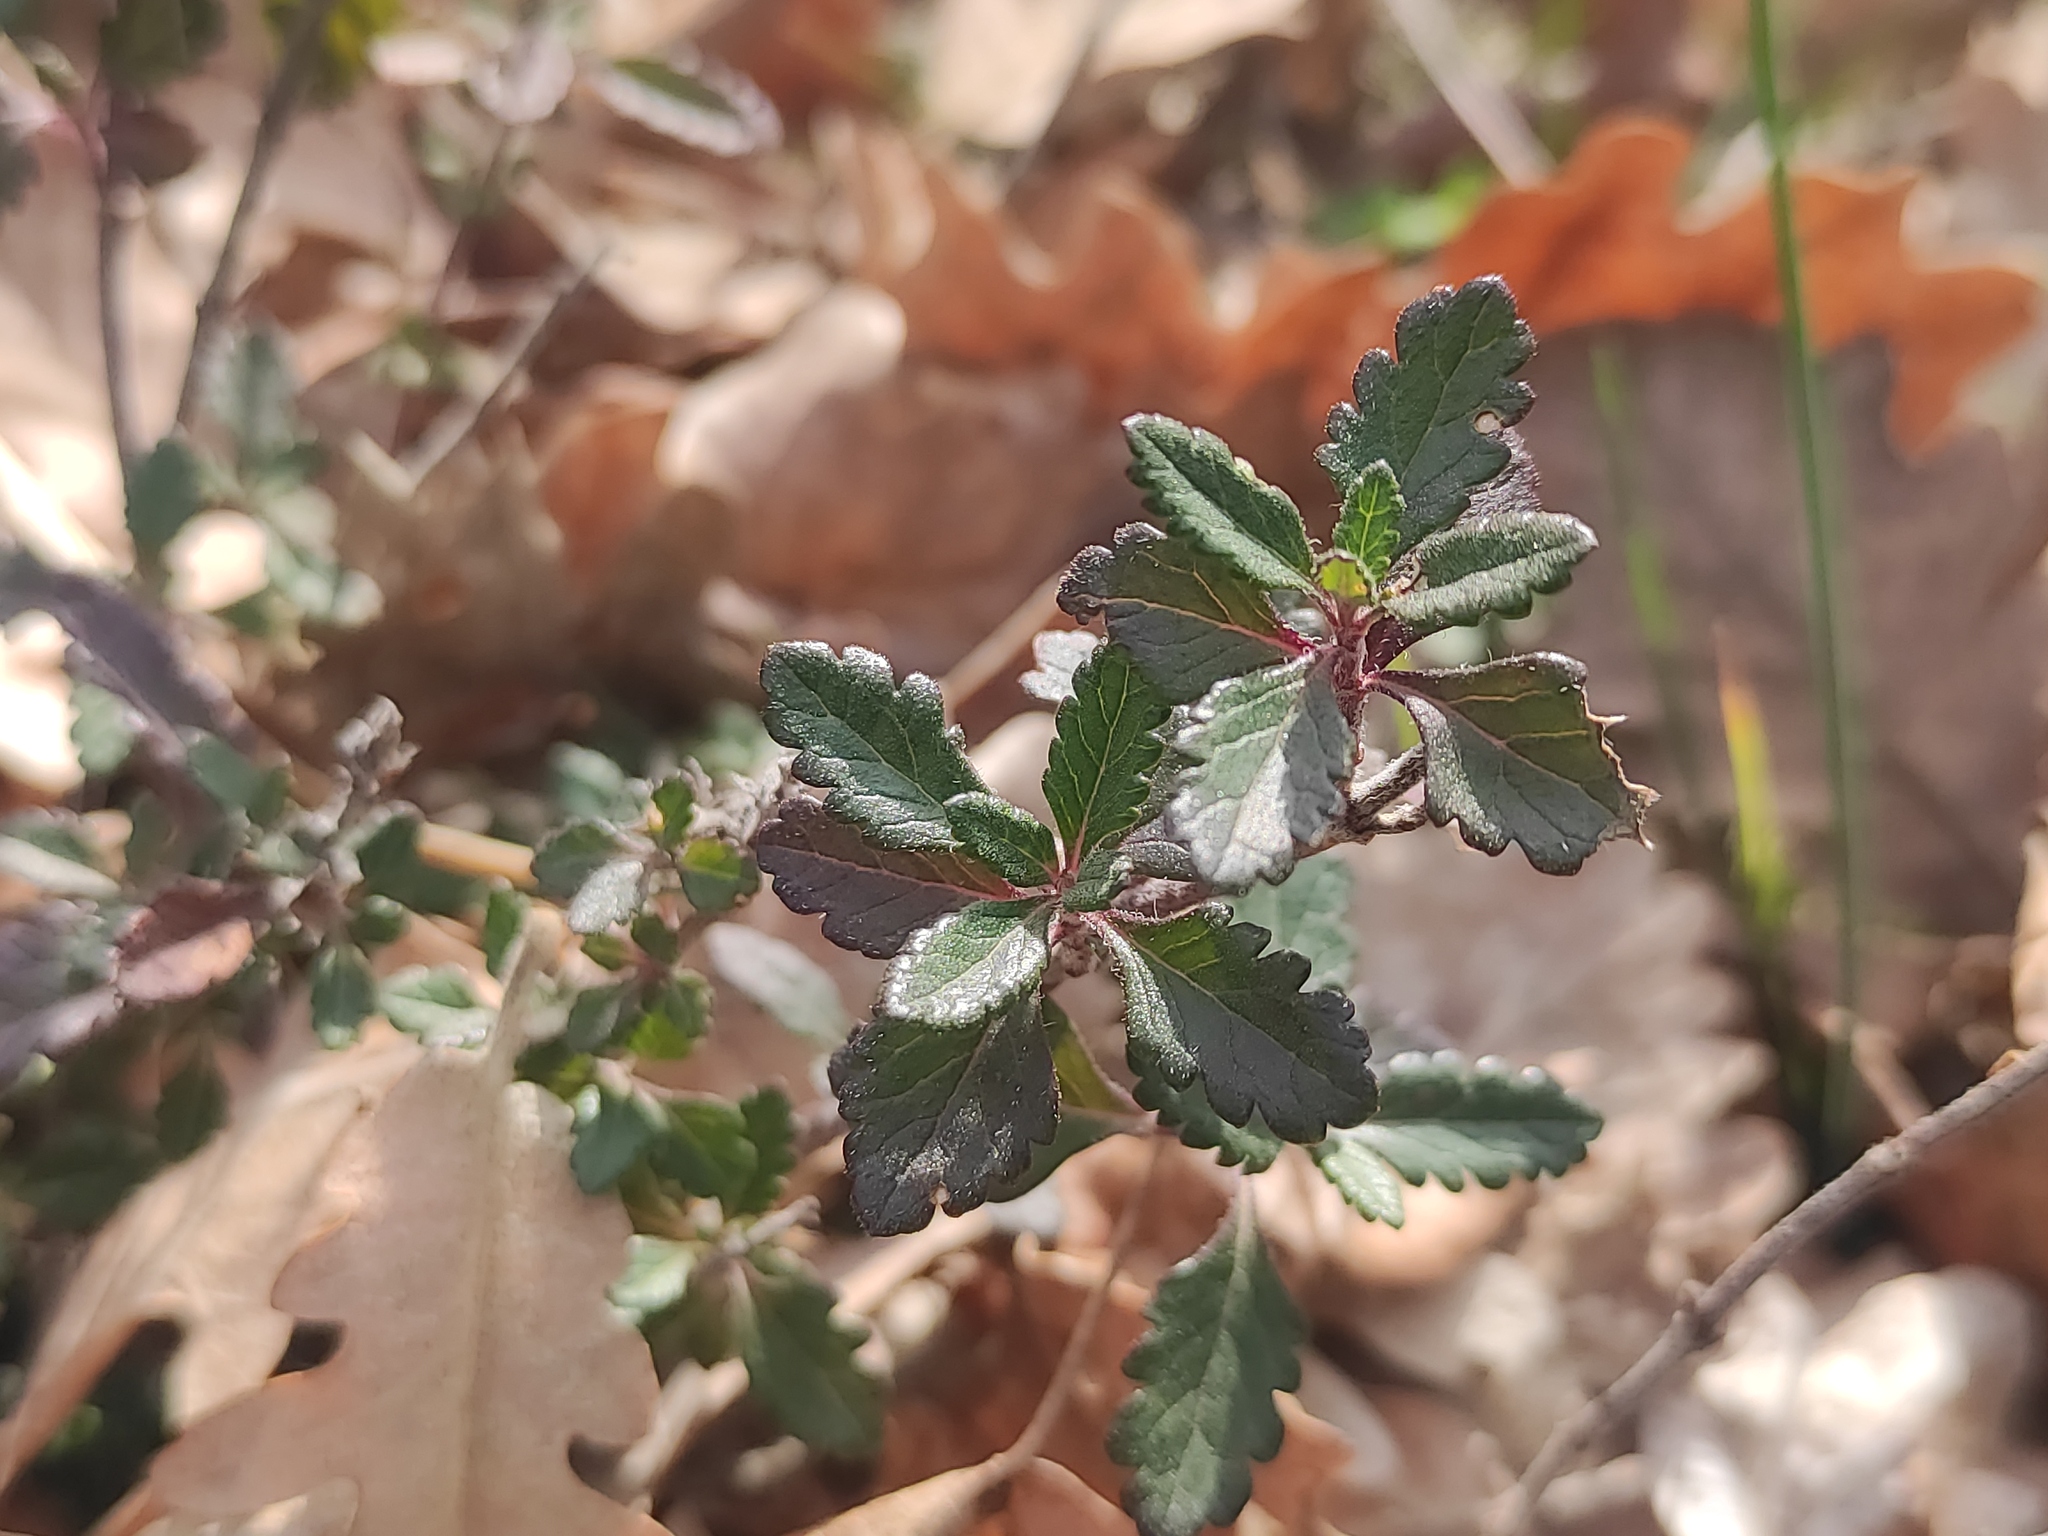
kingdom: Plantae
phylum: Tracheophyta
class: Magnoliopsida
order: Lamiales
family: Lamiaceae
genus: Teucrium
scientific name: Teucrium chamaedrys
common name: Wall germander
